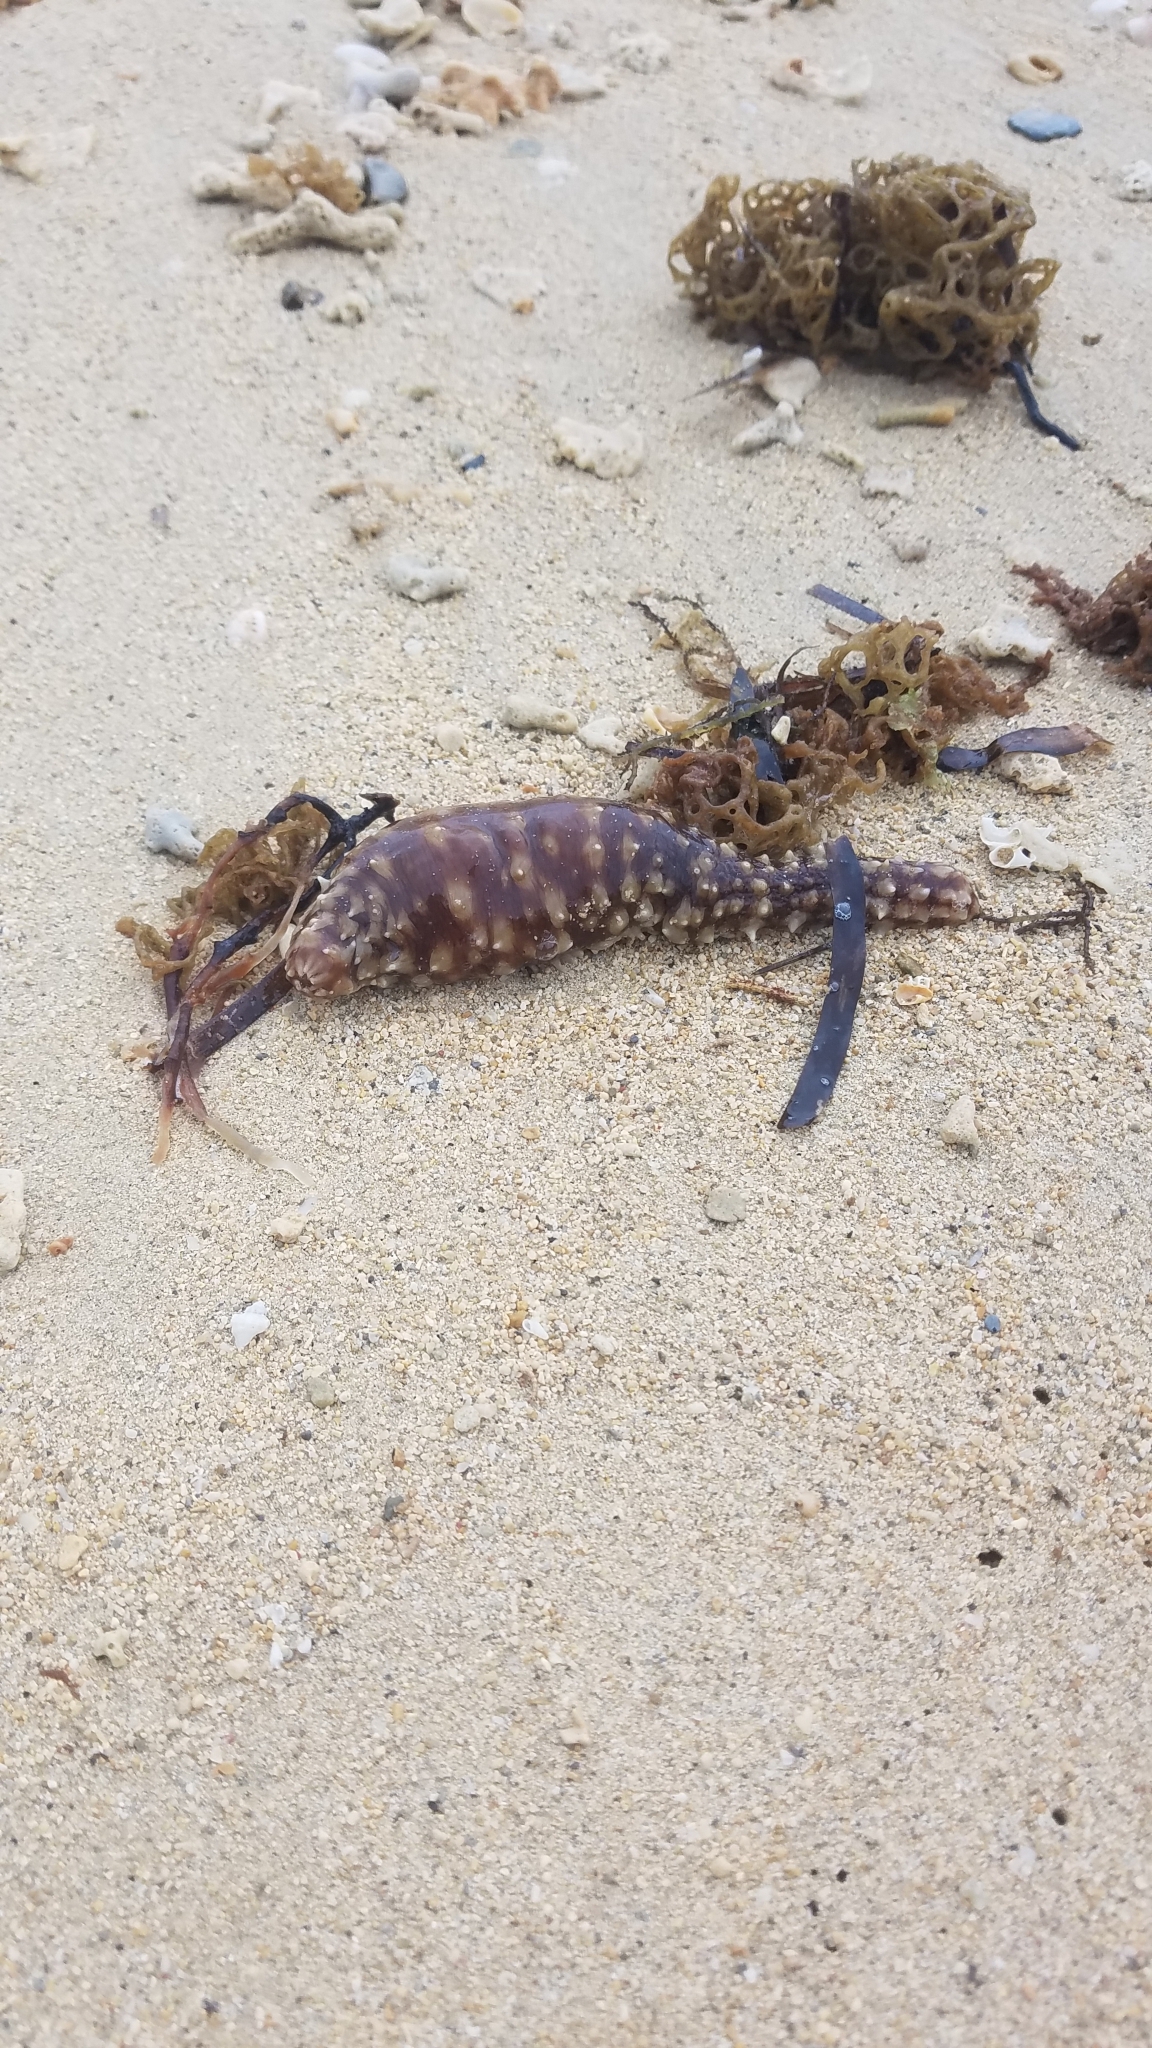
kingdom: Animalia
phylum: Echinodermata
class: Holothuroidea
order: Holothuriida
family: Holothuriidae
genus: Holothuria
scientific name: Holothuria hilla
